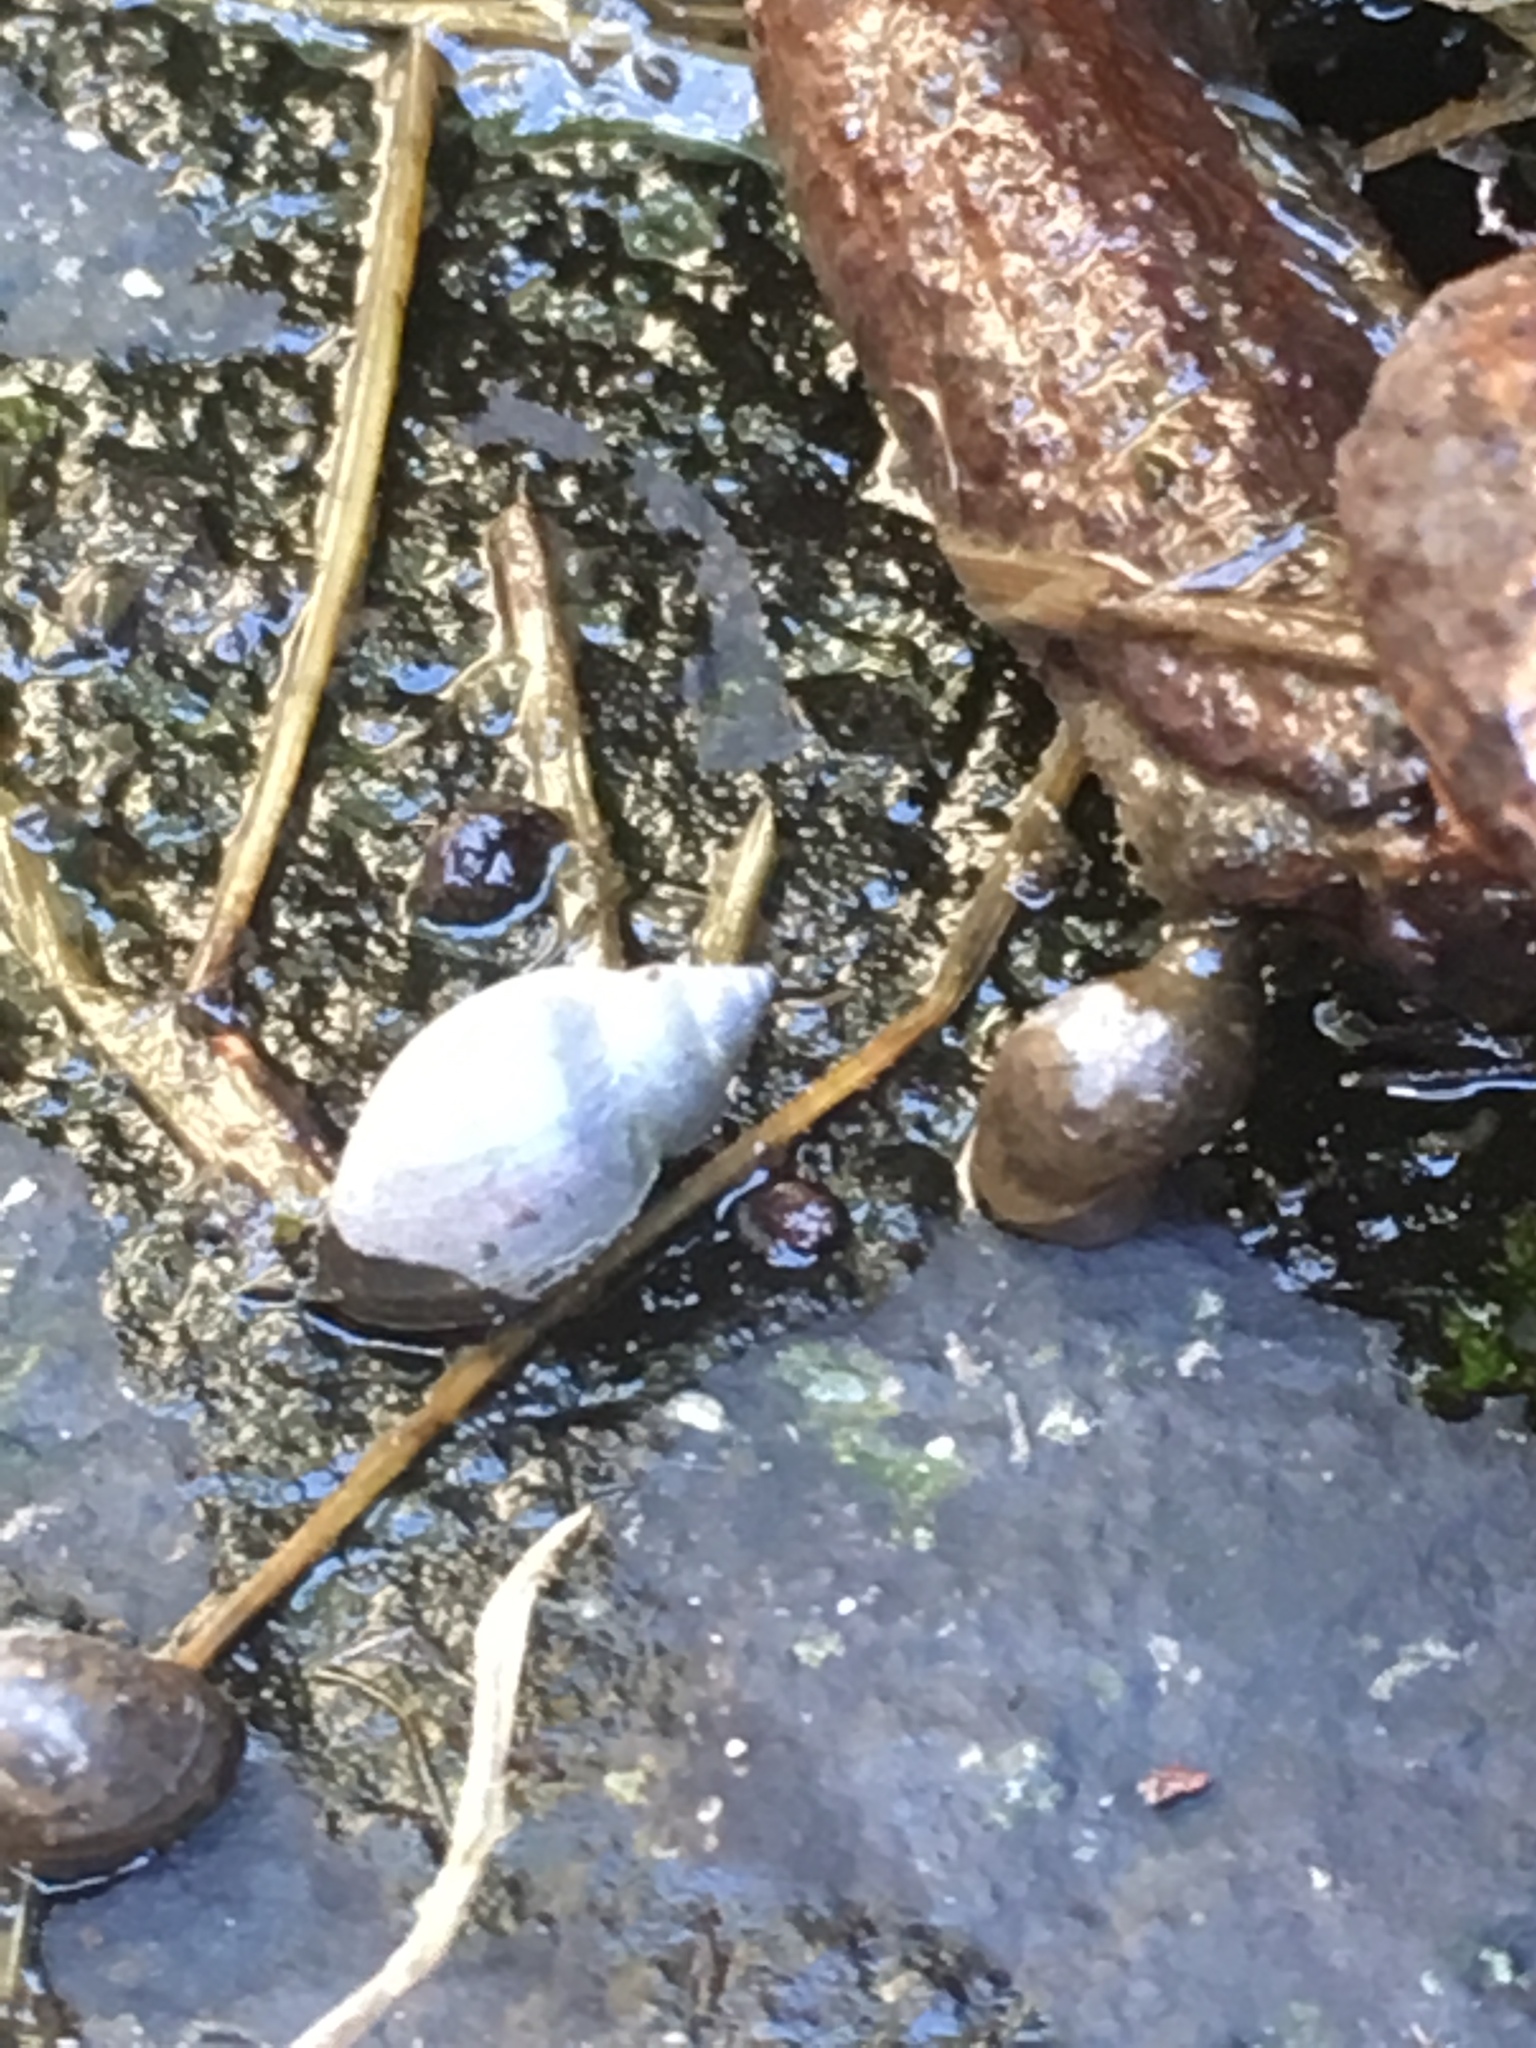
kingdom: Animalia
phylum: Mollusca
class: Gastropoda
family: Physidae
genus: Physella
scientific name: Physella acuta
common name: European physa
